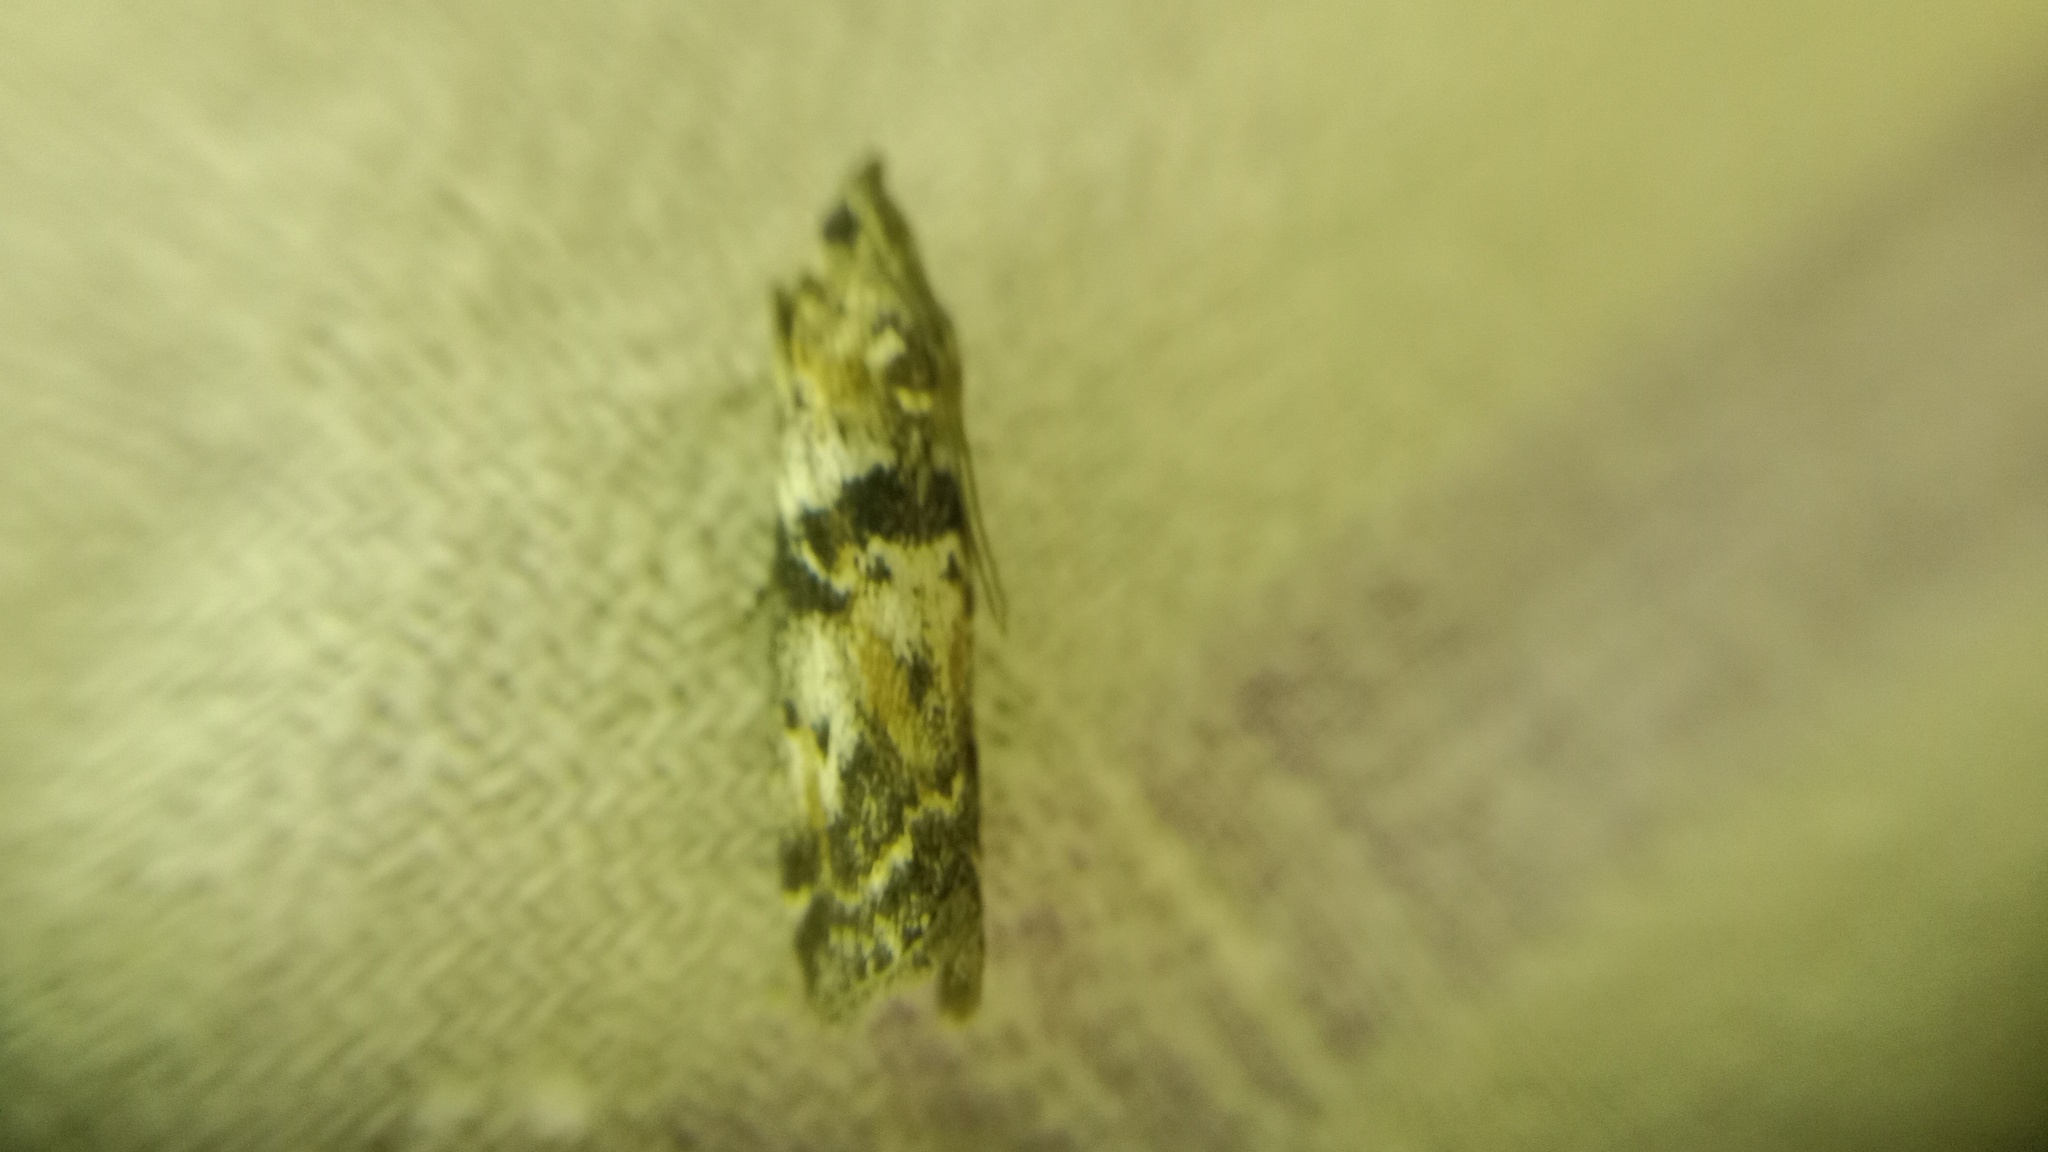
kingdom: Animalia
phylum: Arthropoda
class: Insecta
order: Lepidoptera
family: Pyralidae
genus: Sciota
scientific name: Sciota marmorata
